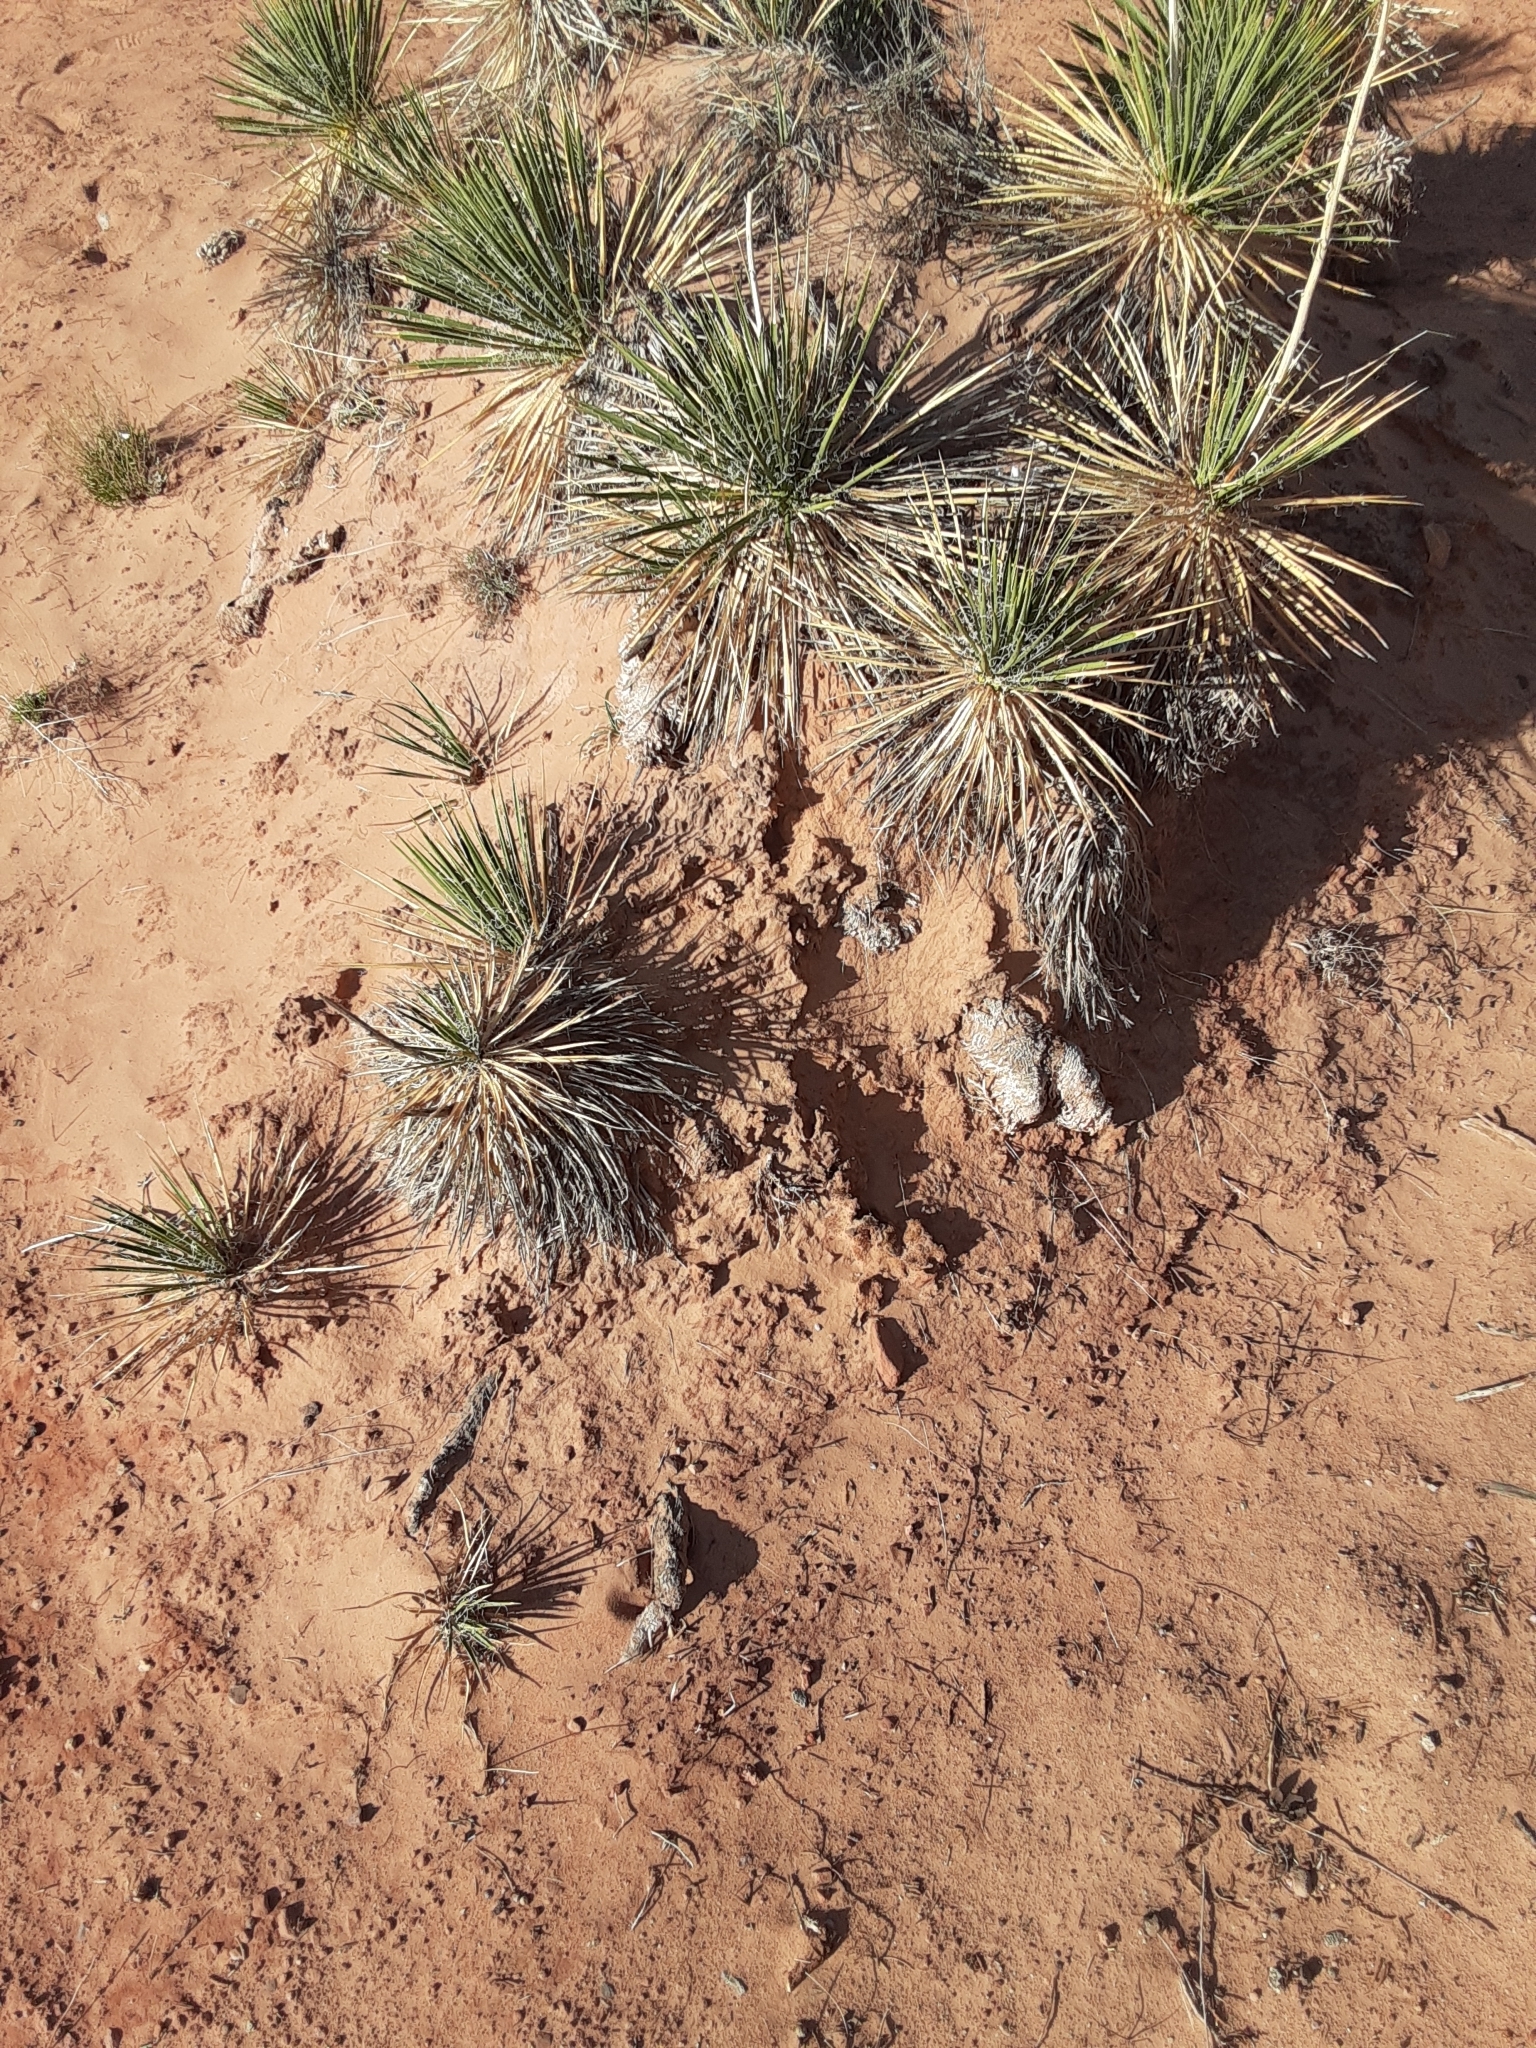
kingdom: Plantae
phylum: Tracheophyta
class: Liliopsida
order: Asparagales
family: Asparagaceae
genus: Yucca
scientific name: Yucca angustissima
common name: Narrowleaf yucca
